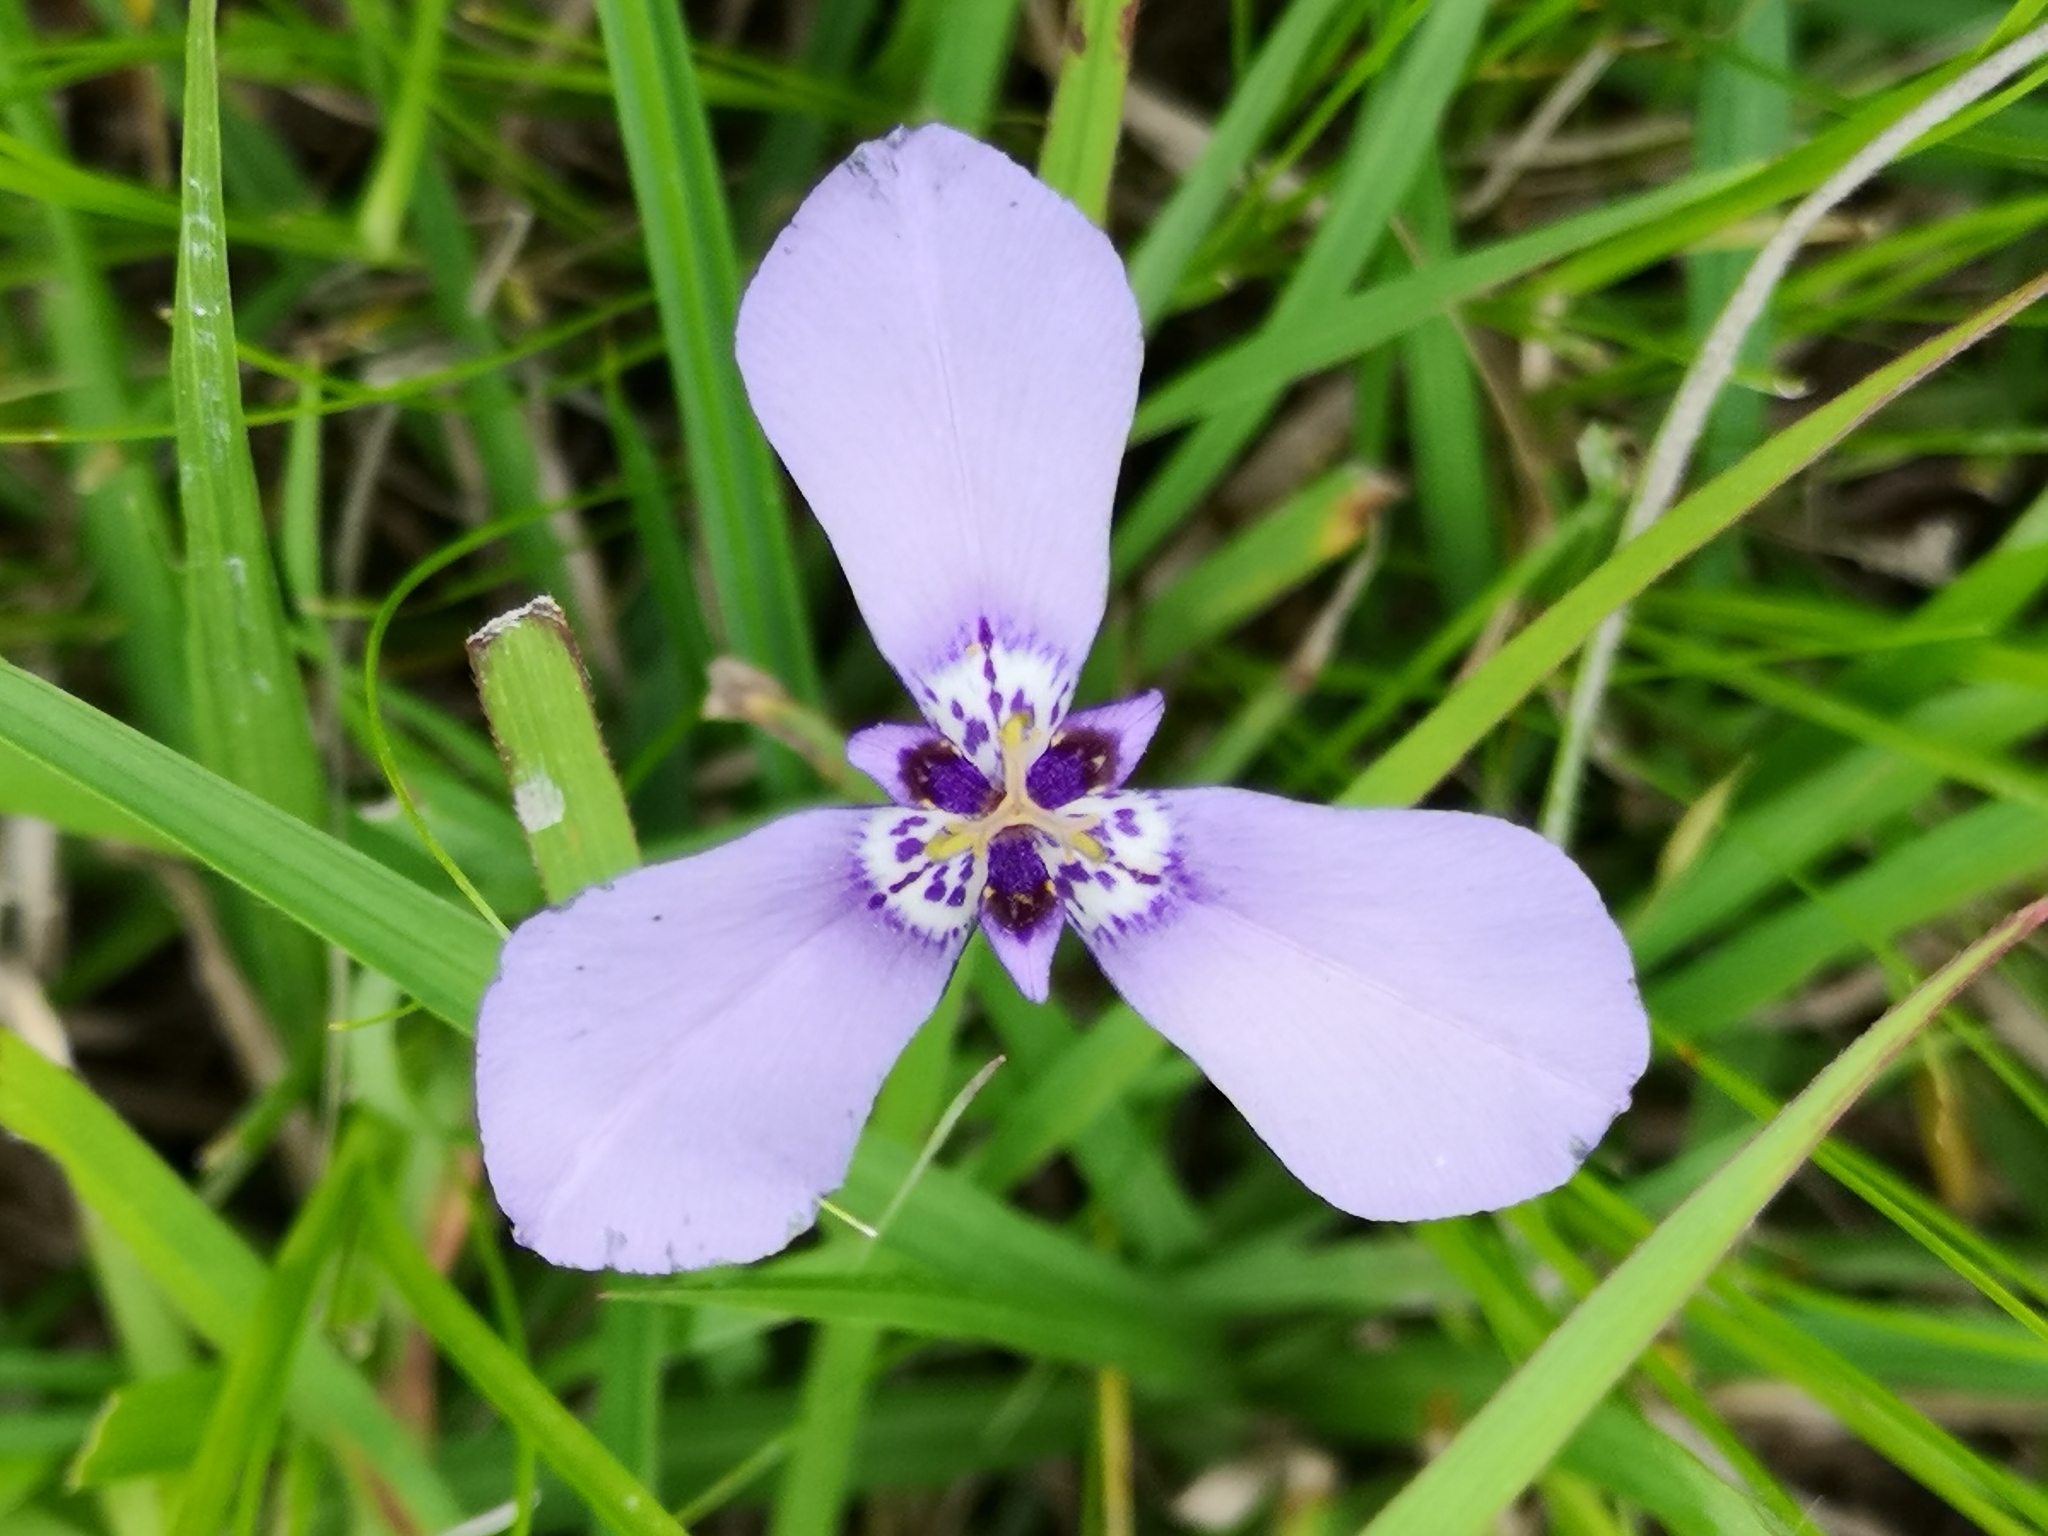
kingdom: Plantae
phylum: Tracheophyta
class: Liliopsida
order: Asparagales
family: Iridaceae
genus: Herbertia
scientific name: Herbertia lahue
